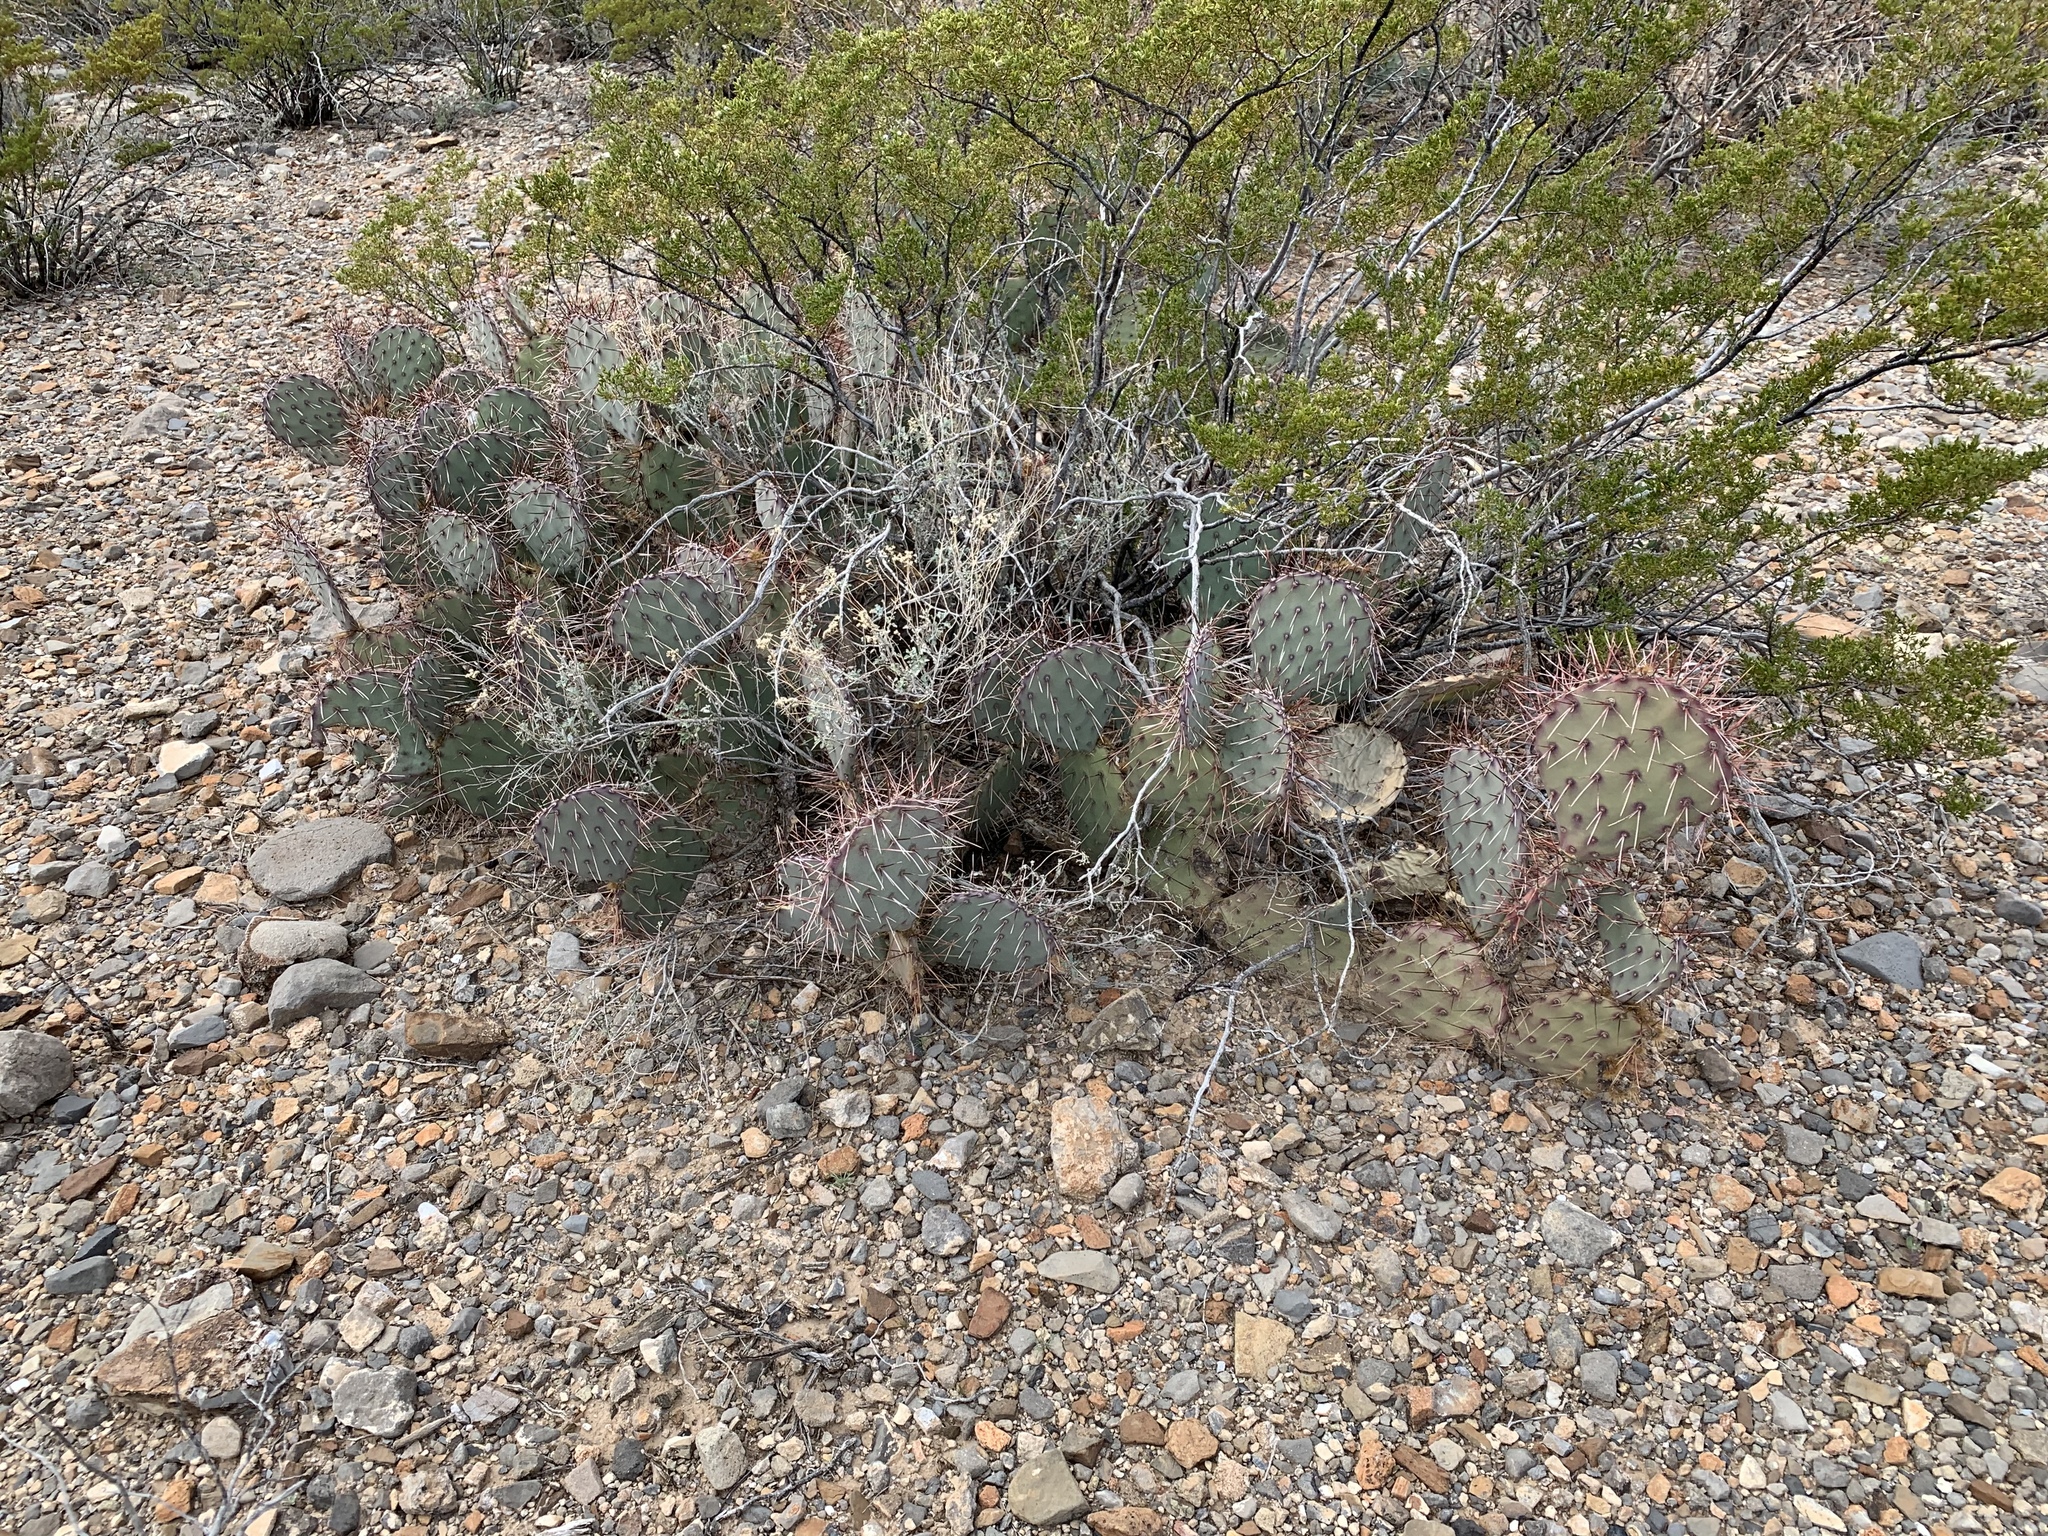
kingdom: Plantae
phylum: Tracheophyta
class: Magnoliopsida
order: Caryophyllales
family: Cactaceae
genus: Opuntia
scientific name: Opuntia macrocentra
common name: Purple prickly-pear
